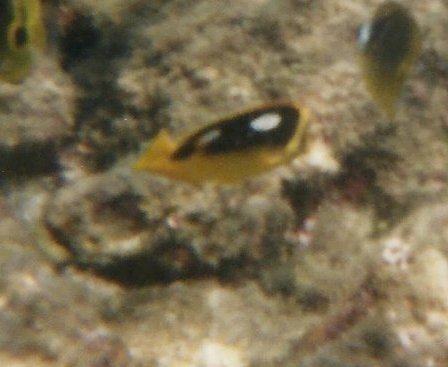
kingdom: Animalia
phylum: Chordata
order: Perciformes
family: Chaetodontidae
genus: Chaetodon
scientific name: Chaetodon quadrimaculatus
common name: Fourspot butterflyfish
